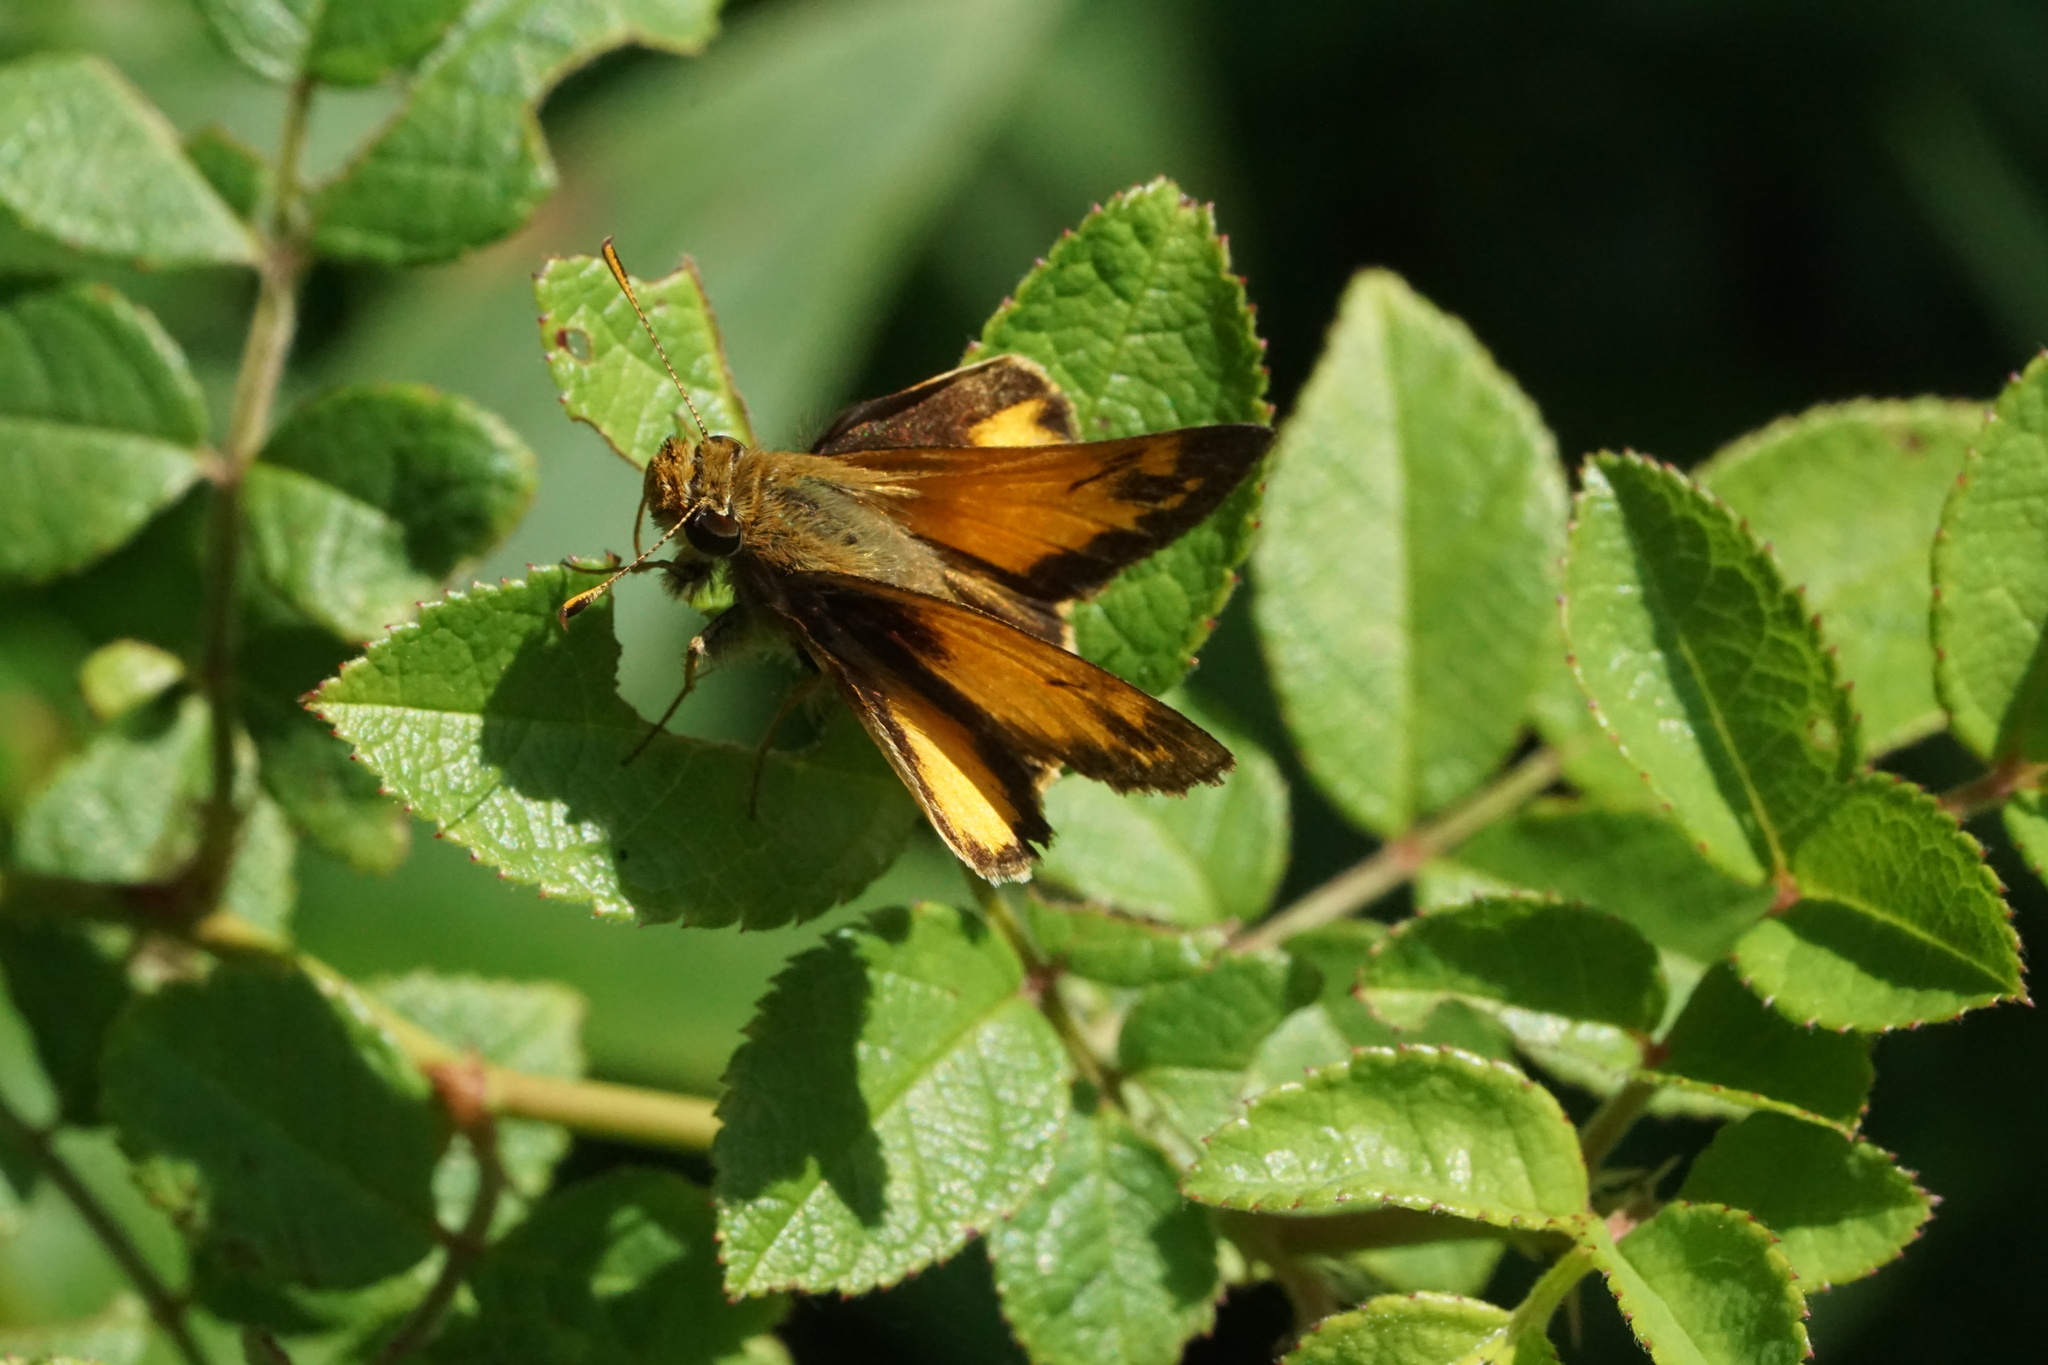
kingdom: Animalia
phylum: Arthropoda
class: Insecta
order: Lepidoptera
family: Hesperiidae
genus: Lon
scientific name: Lon zabulon
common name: Zabulon skipper
